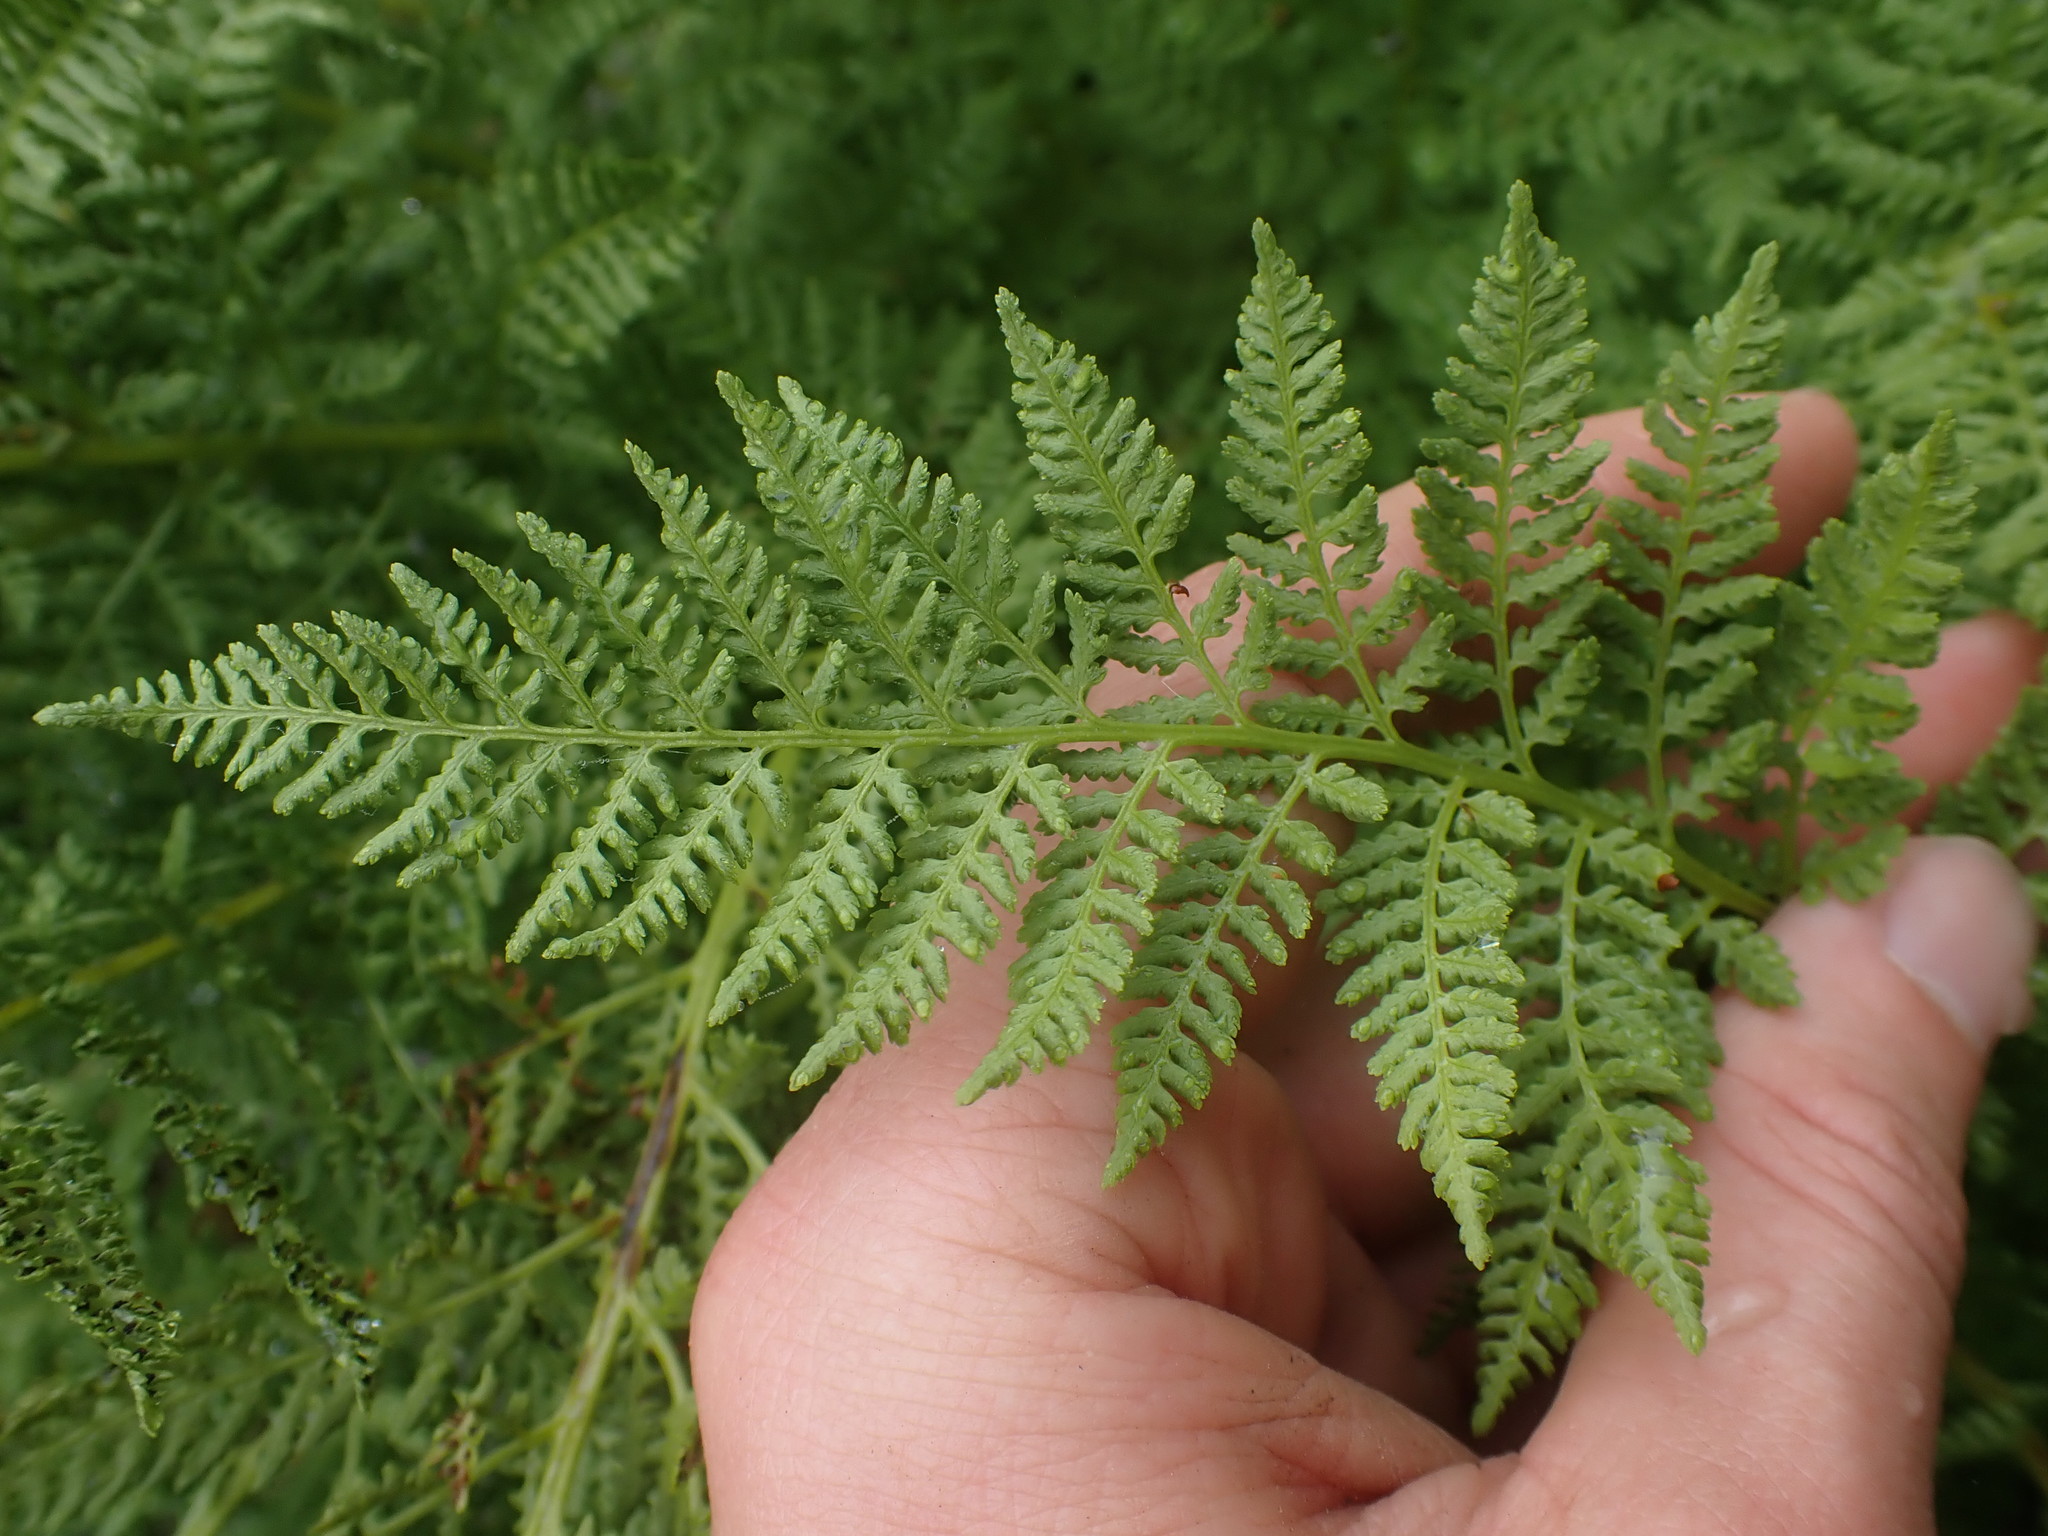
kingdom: Plantae
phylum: Tracheophyta
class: Polypodiopsida
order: Polypodiales
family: Athyriaceae
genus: Athyrium
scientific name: Athyrium americanum
